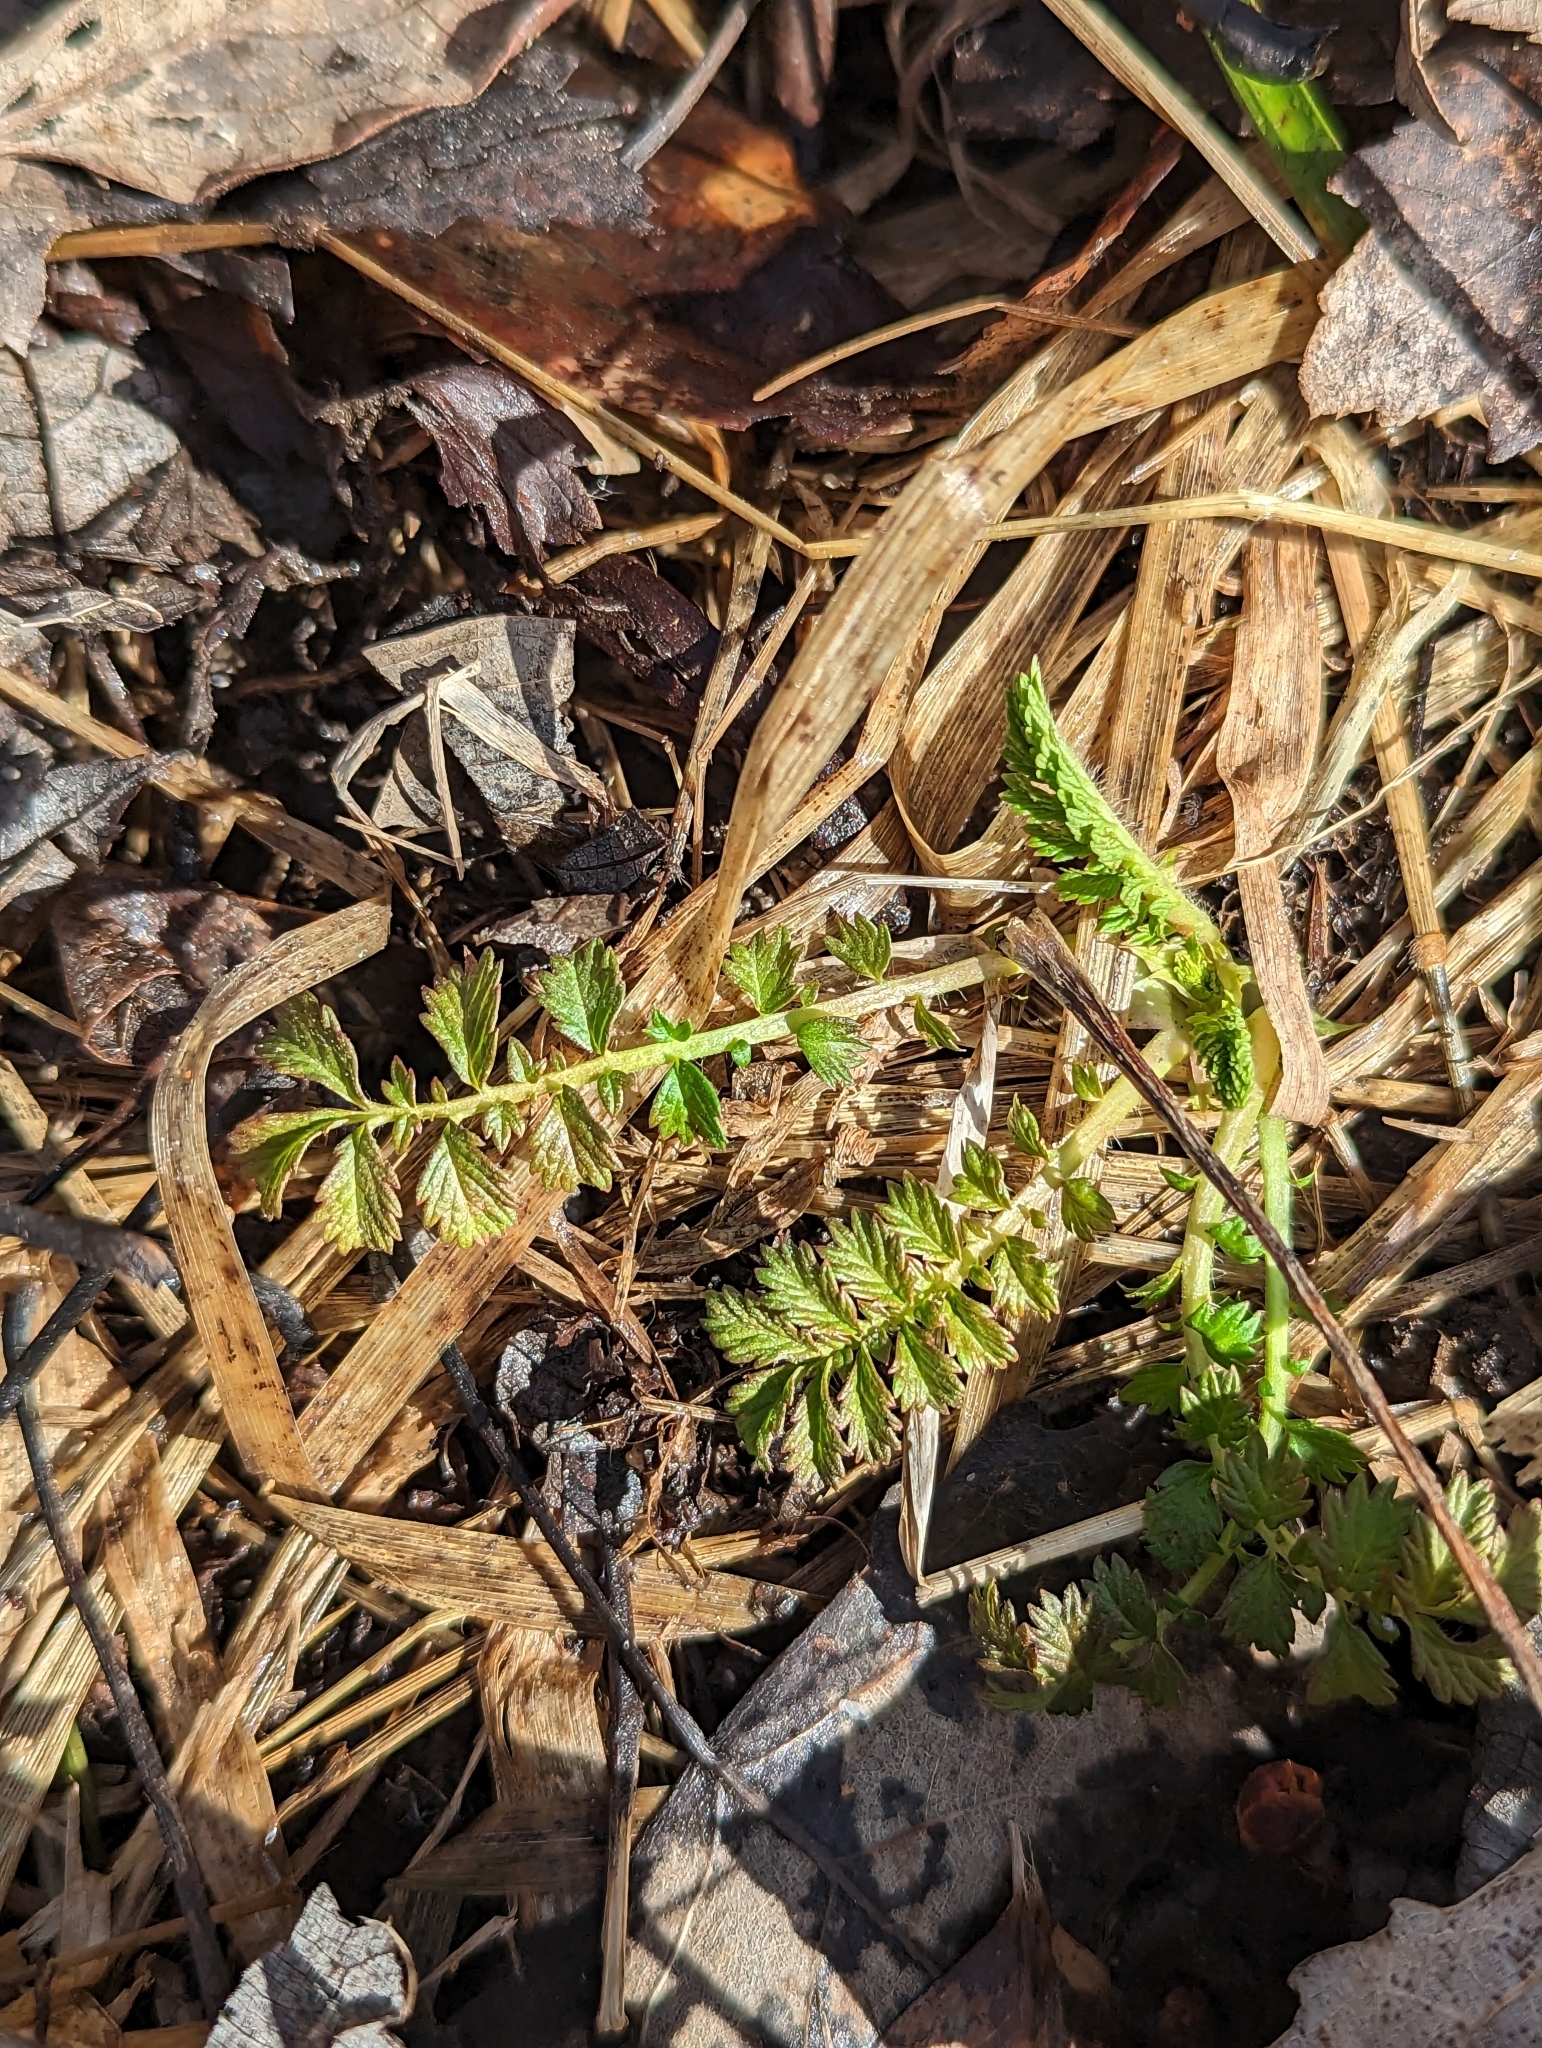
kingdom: Plantae
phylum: Tracheophyta
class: Magnoliopsida
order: Rosales
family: Rosaceae
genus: Agrimonia
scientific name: Agrimonia parviflora
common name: Harvest-lice
